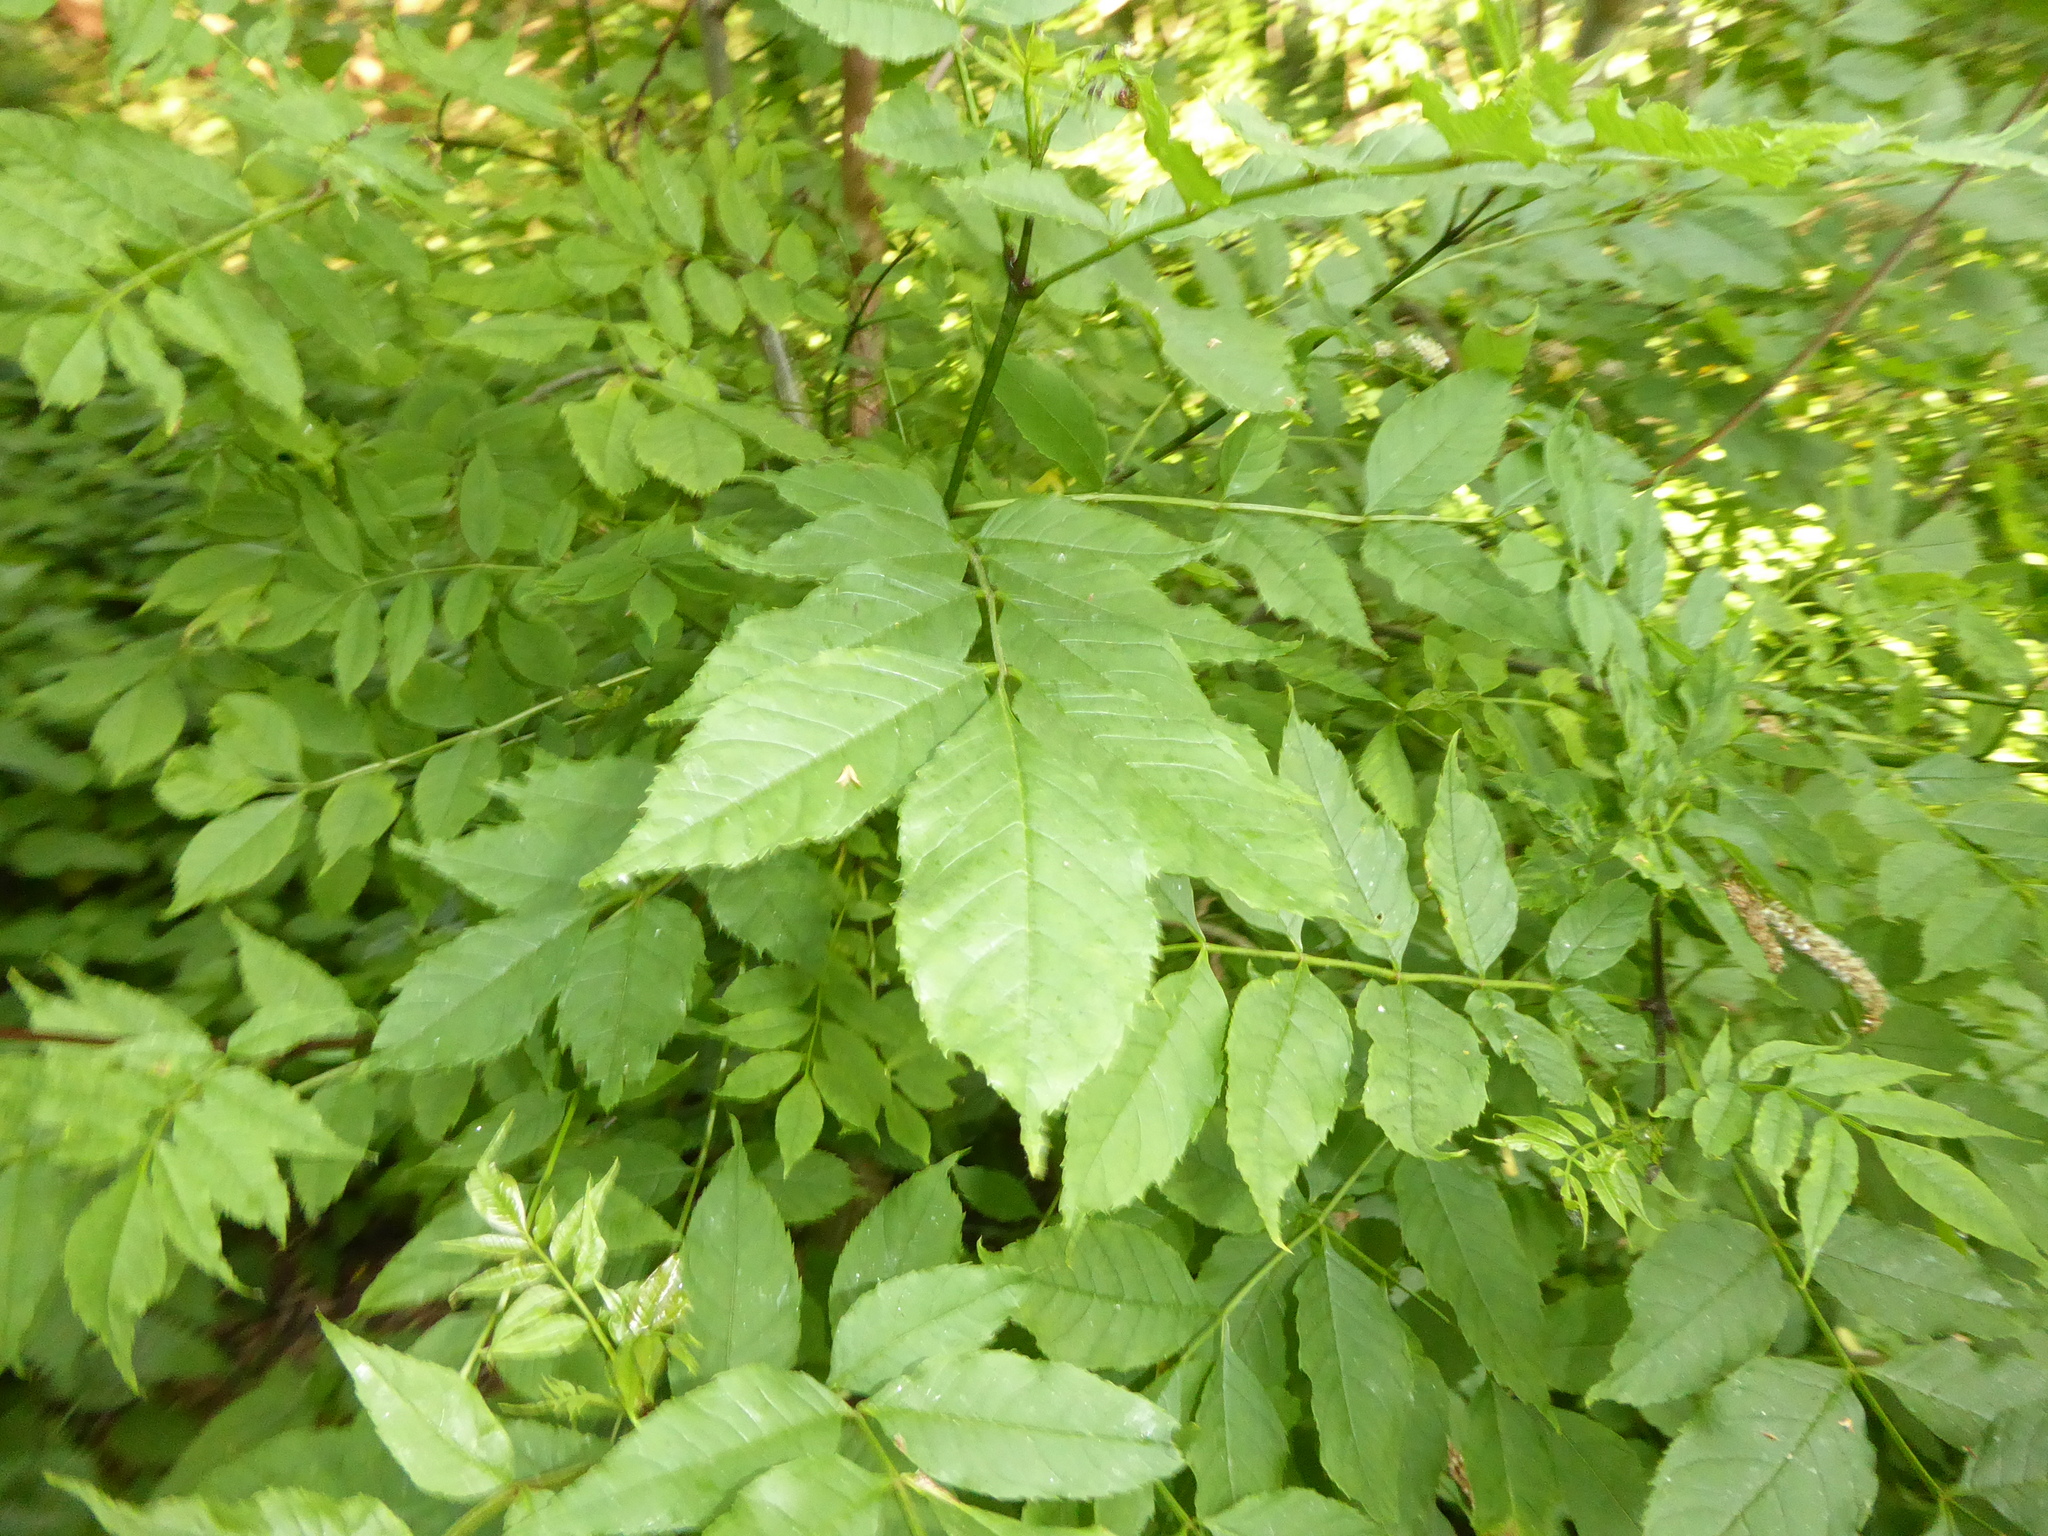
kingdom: Plantae
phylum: Tracheophyta
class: Magnoliopsida
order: Lamiales
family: Oleaceae
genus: Fraxinus
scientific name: Fraxinus excelsior
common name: European ash
